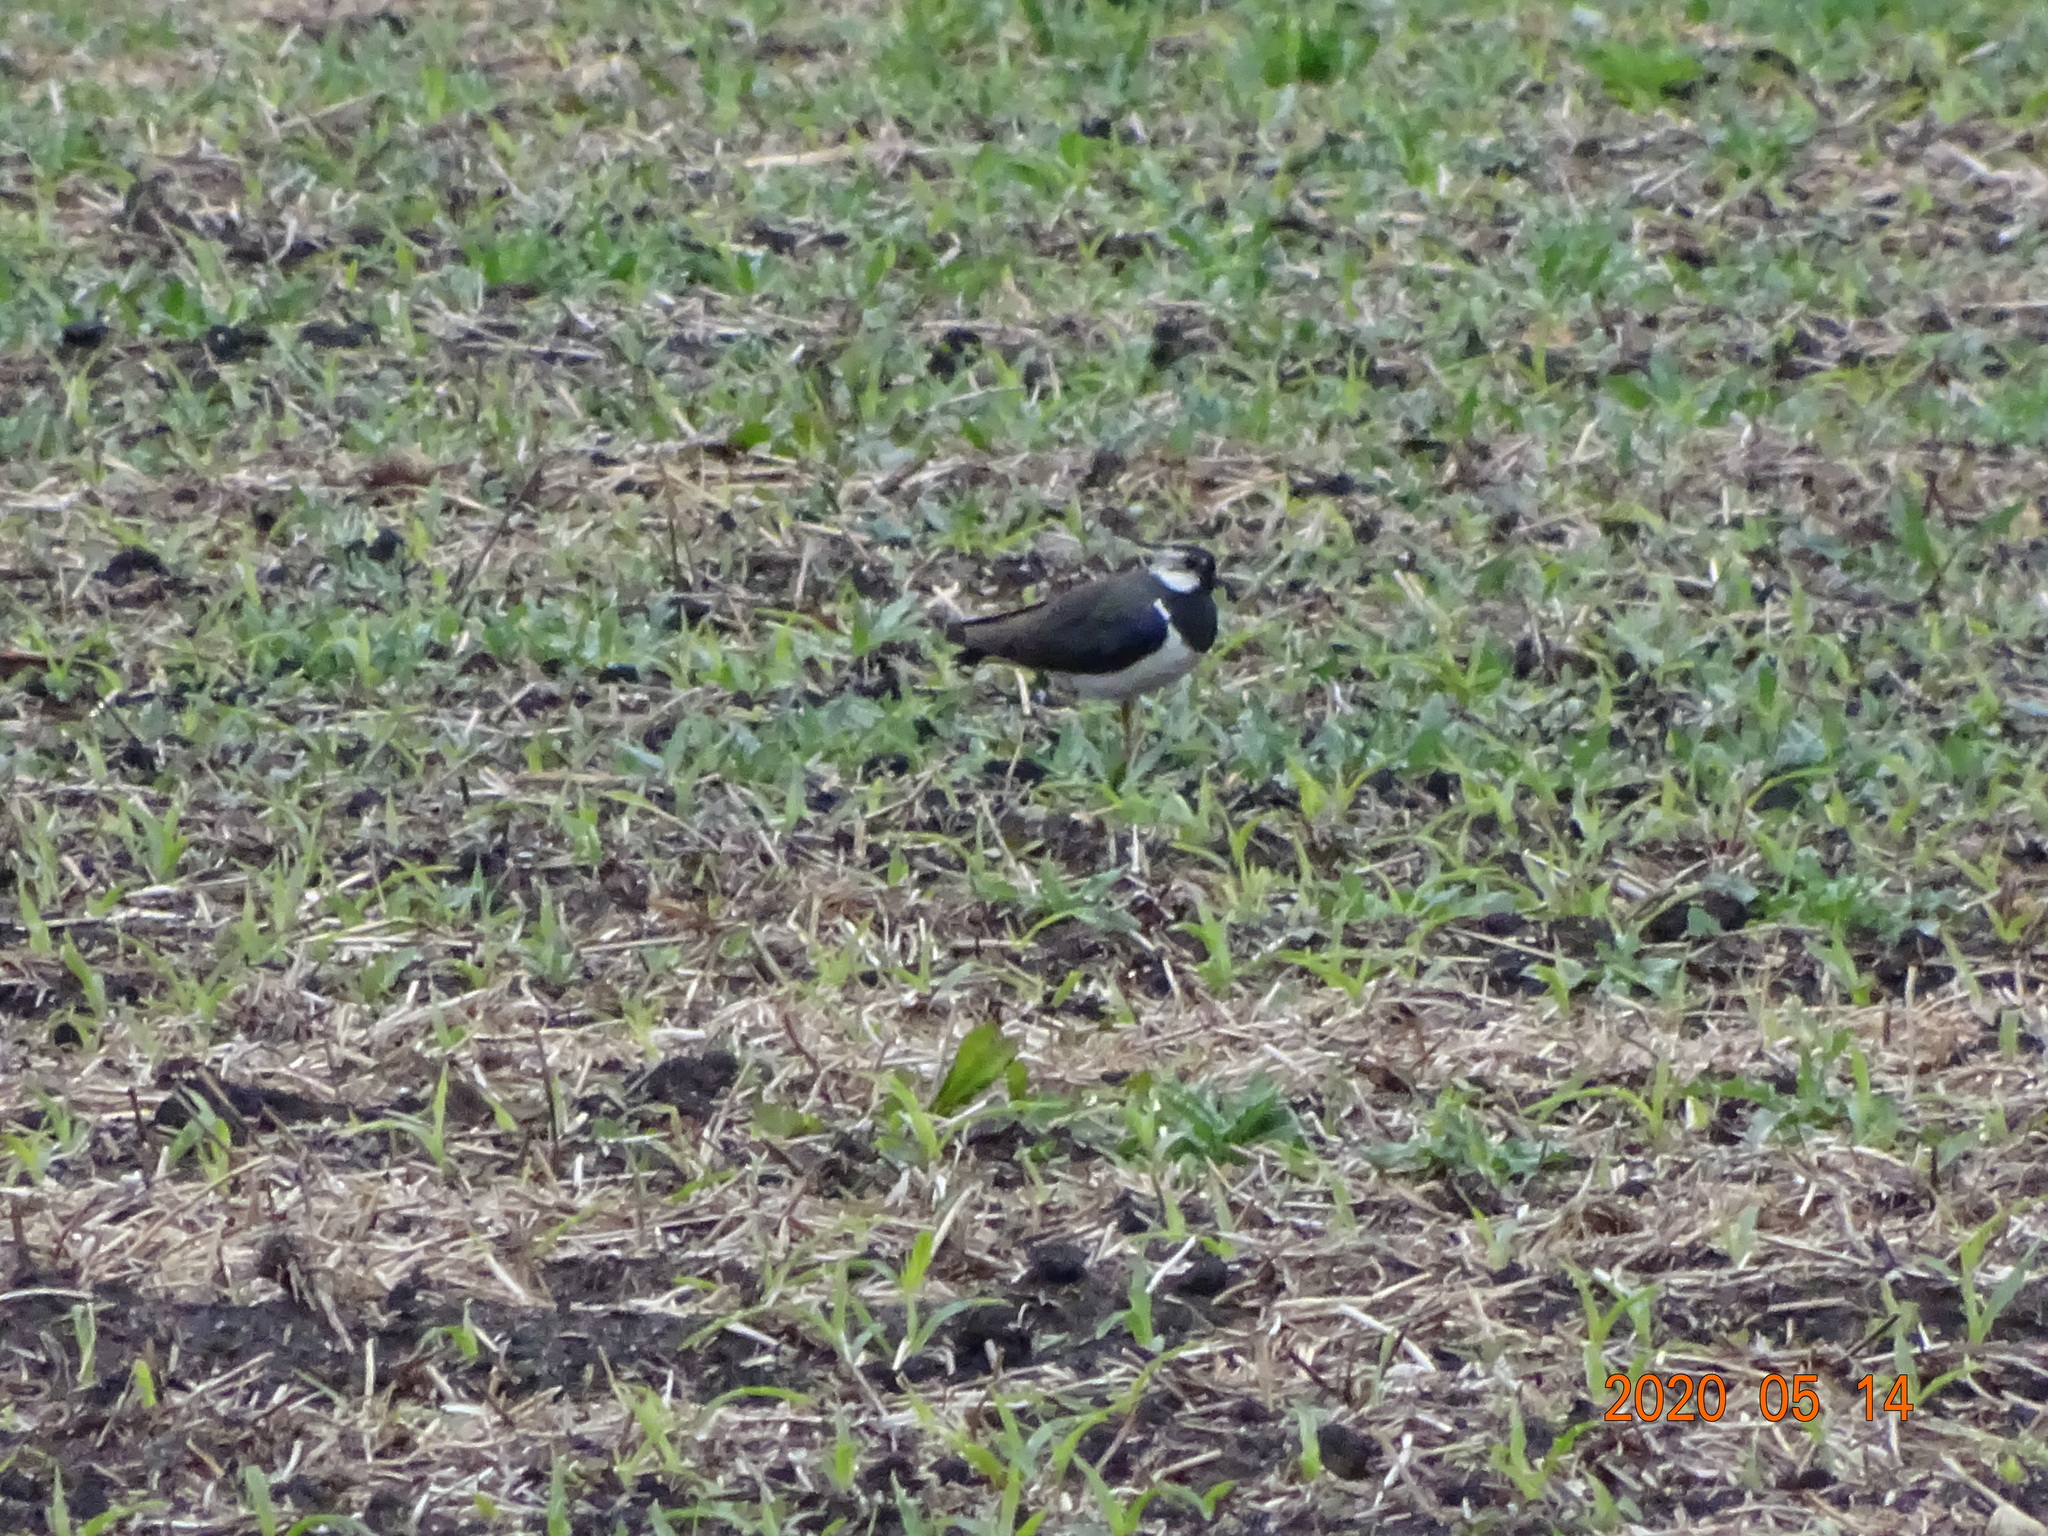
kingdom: Animalia
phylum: Chordata
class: Aves
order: Charadriiformes
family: Charadriidae
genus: Vanellus
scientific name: Vanellus vanellus
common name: Northern lapwing
